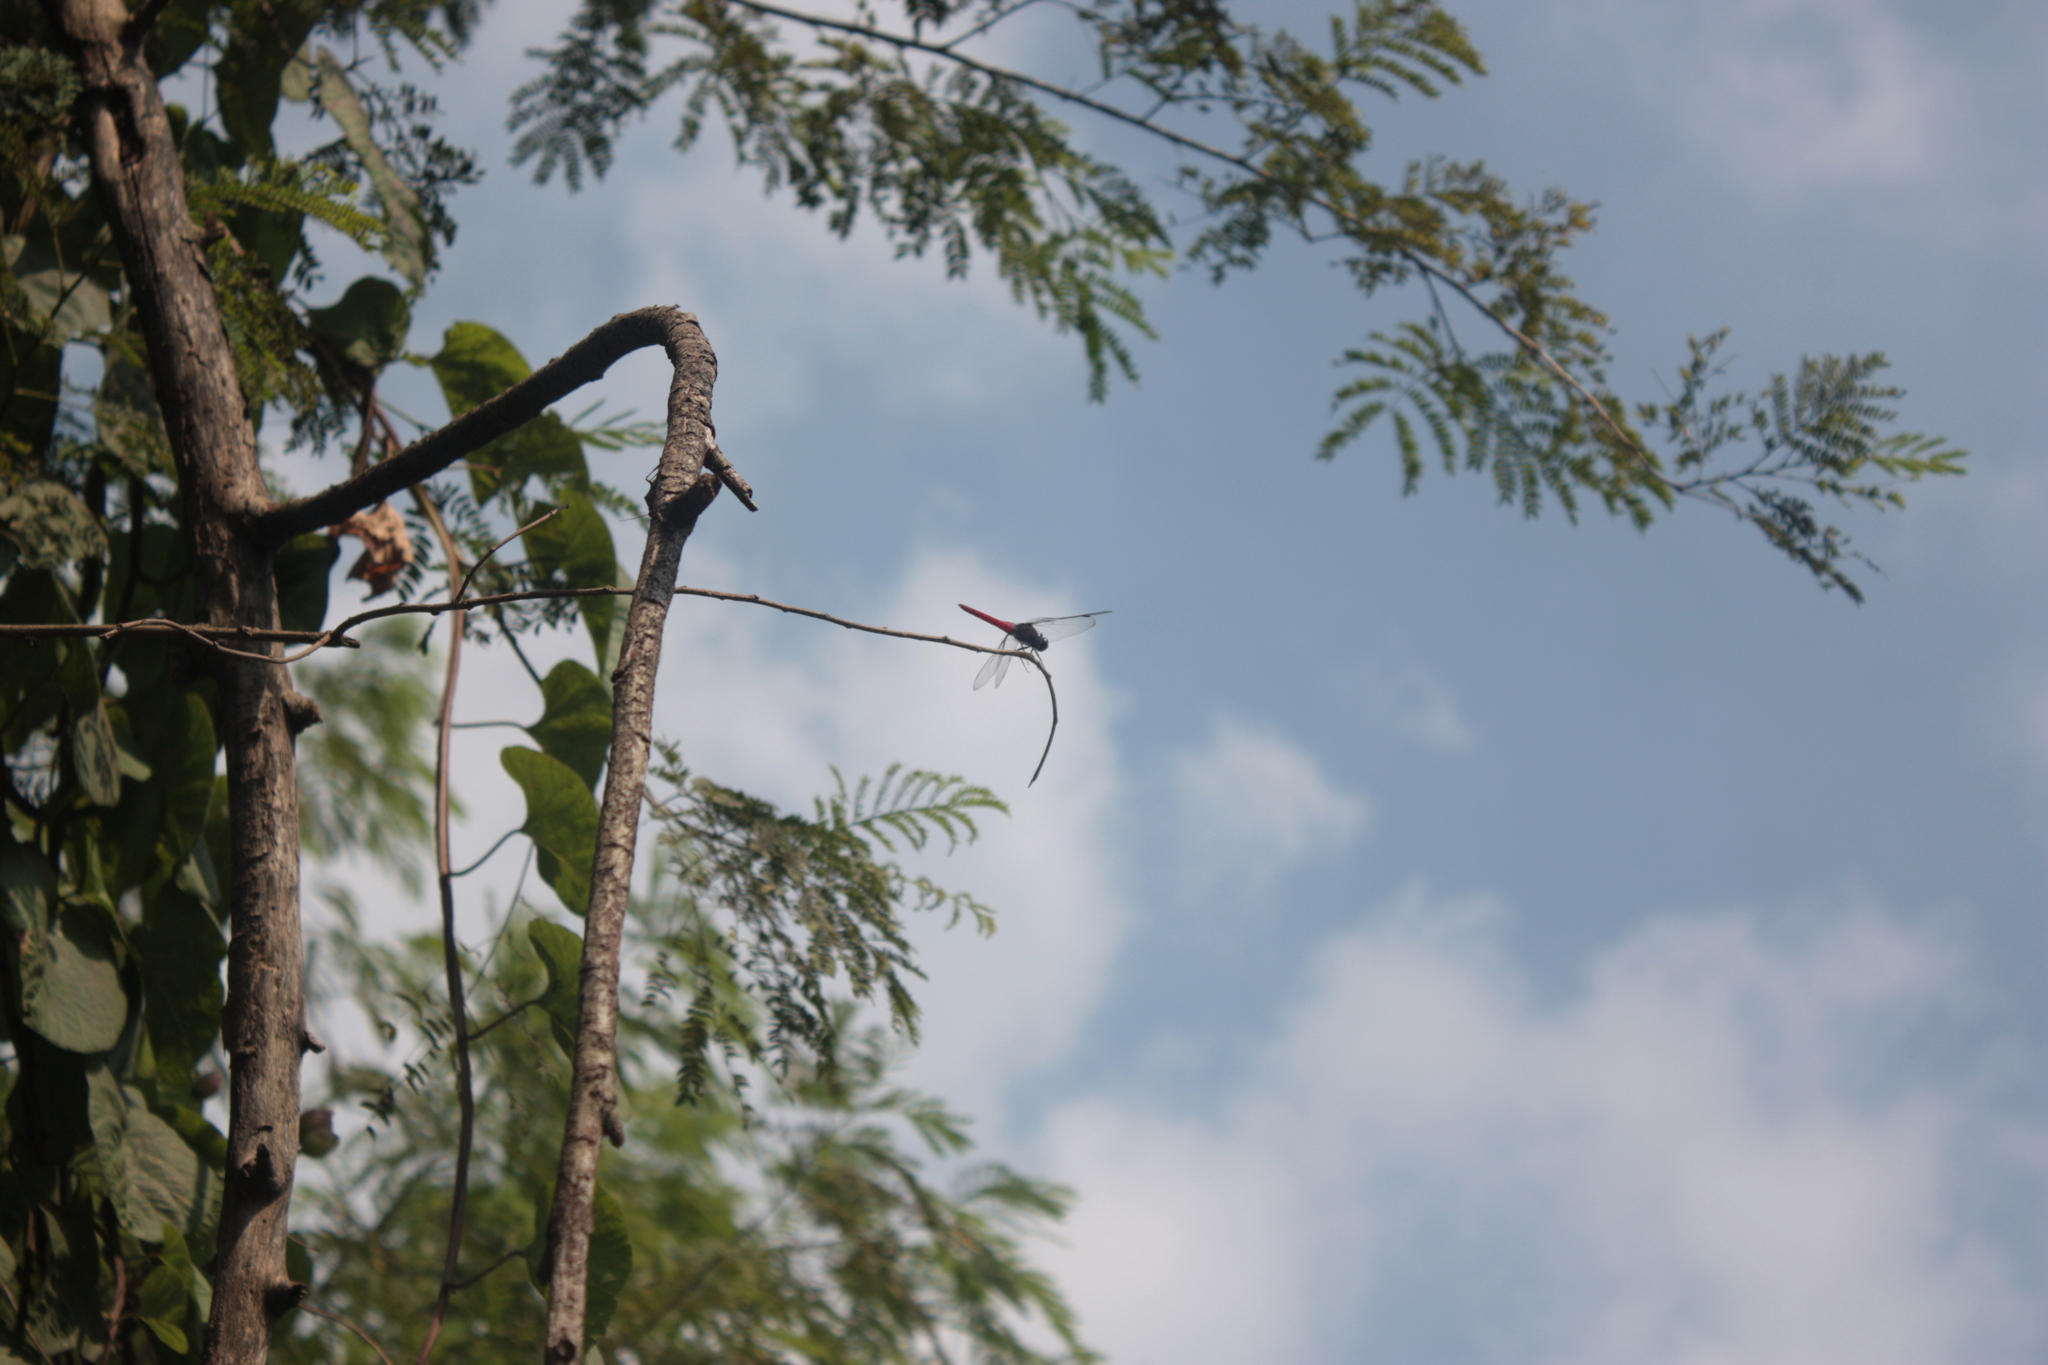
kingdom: Animalia
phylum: Arthropoda
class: Insecta
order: Odonata
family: Libellulidae
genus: Orthetrum
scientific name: Orthetrum pruinosum
